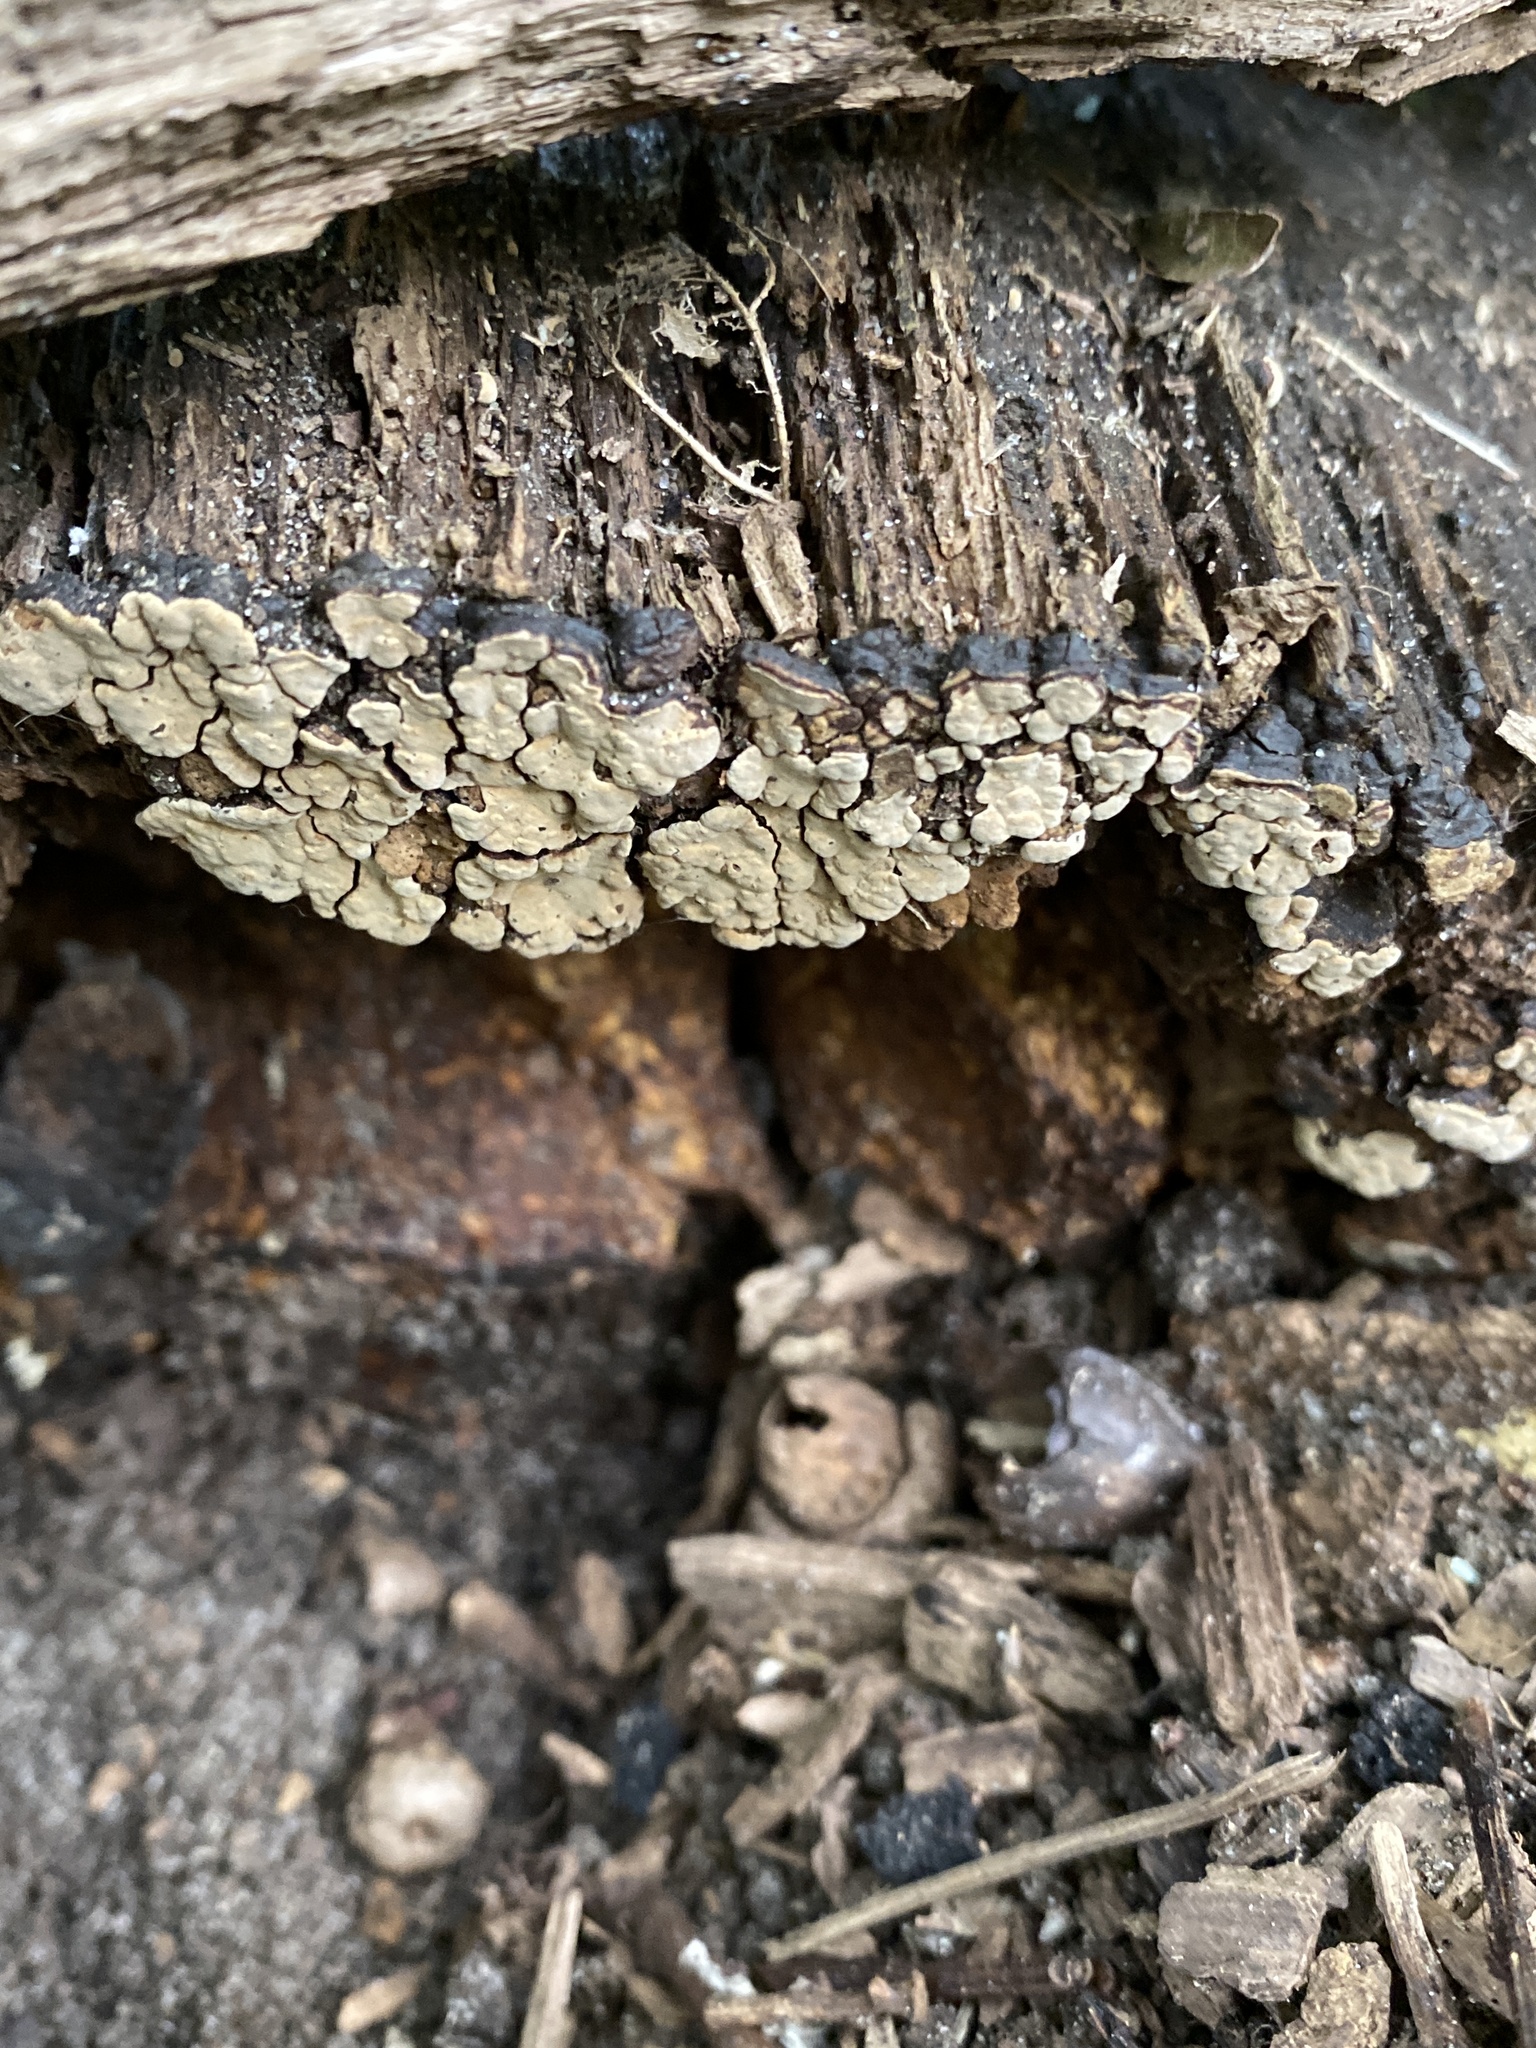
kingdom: Fungi
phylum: Basidiomycota
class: Agaricomycetes
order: Russulales
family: Stereaceae
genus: Xylobolus
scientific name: Xylobolus frustulatus
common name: Ceramic parchment
